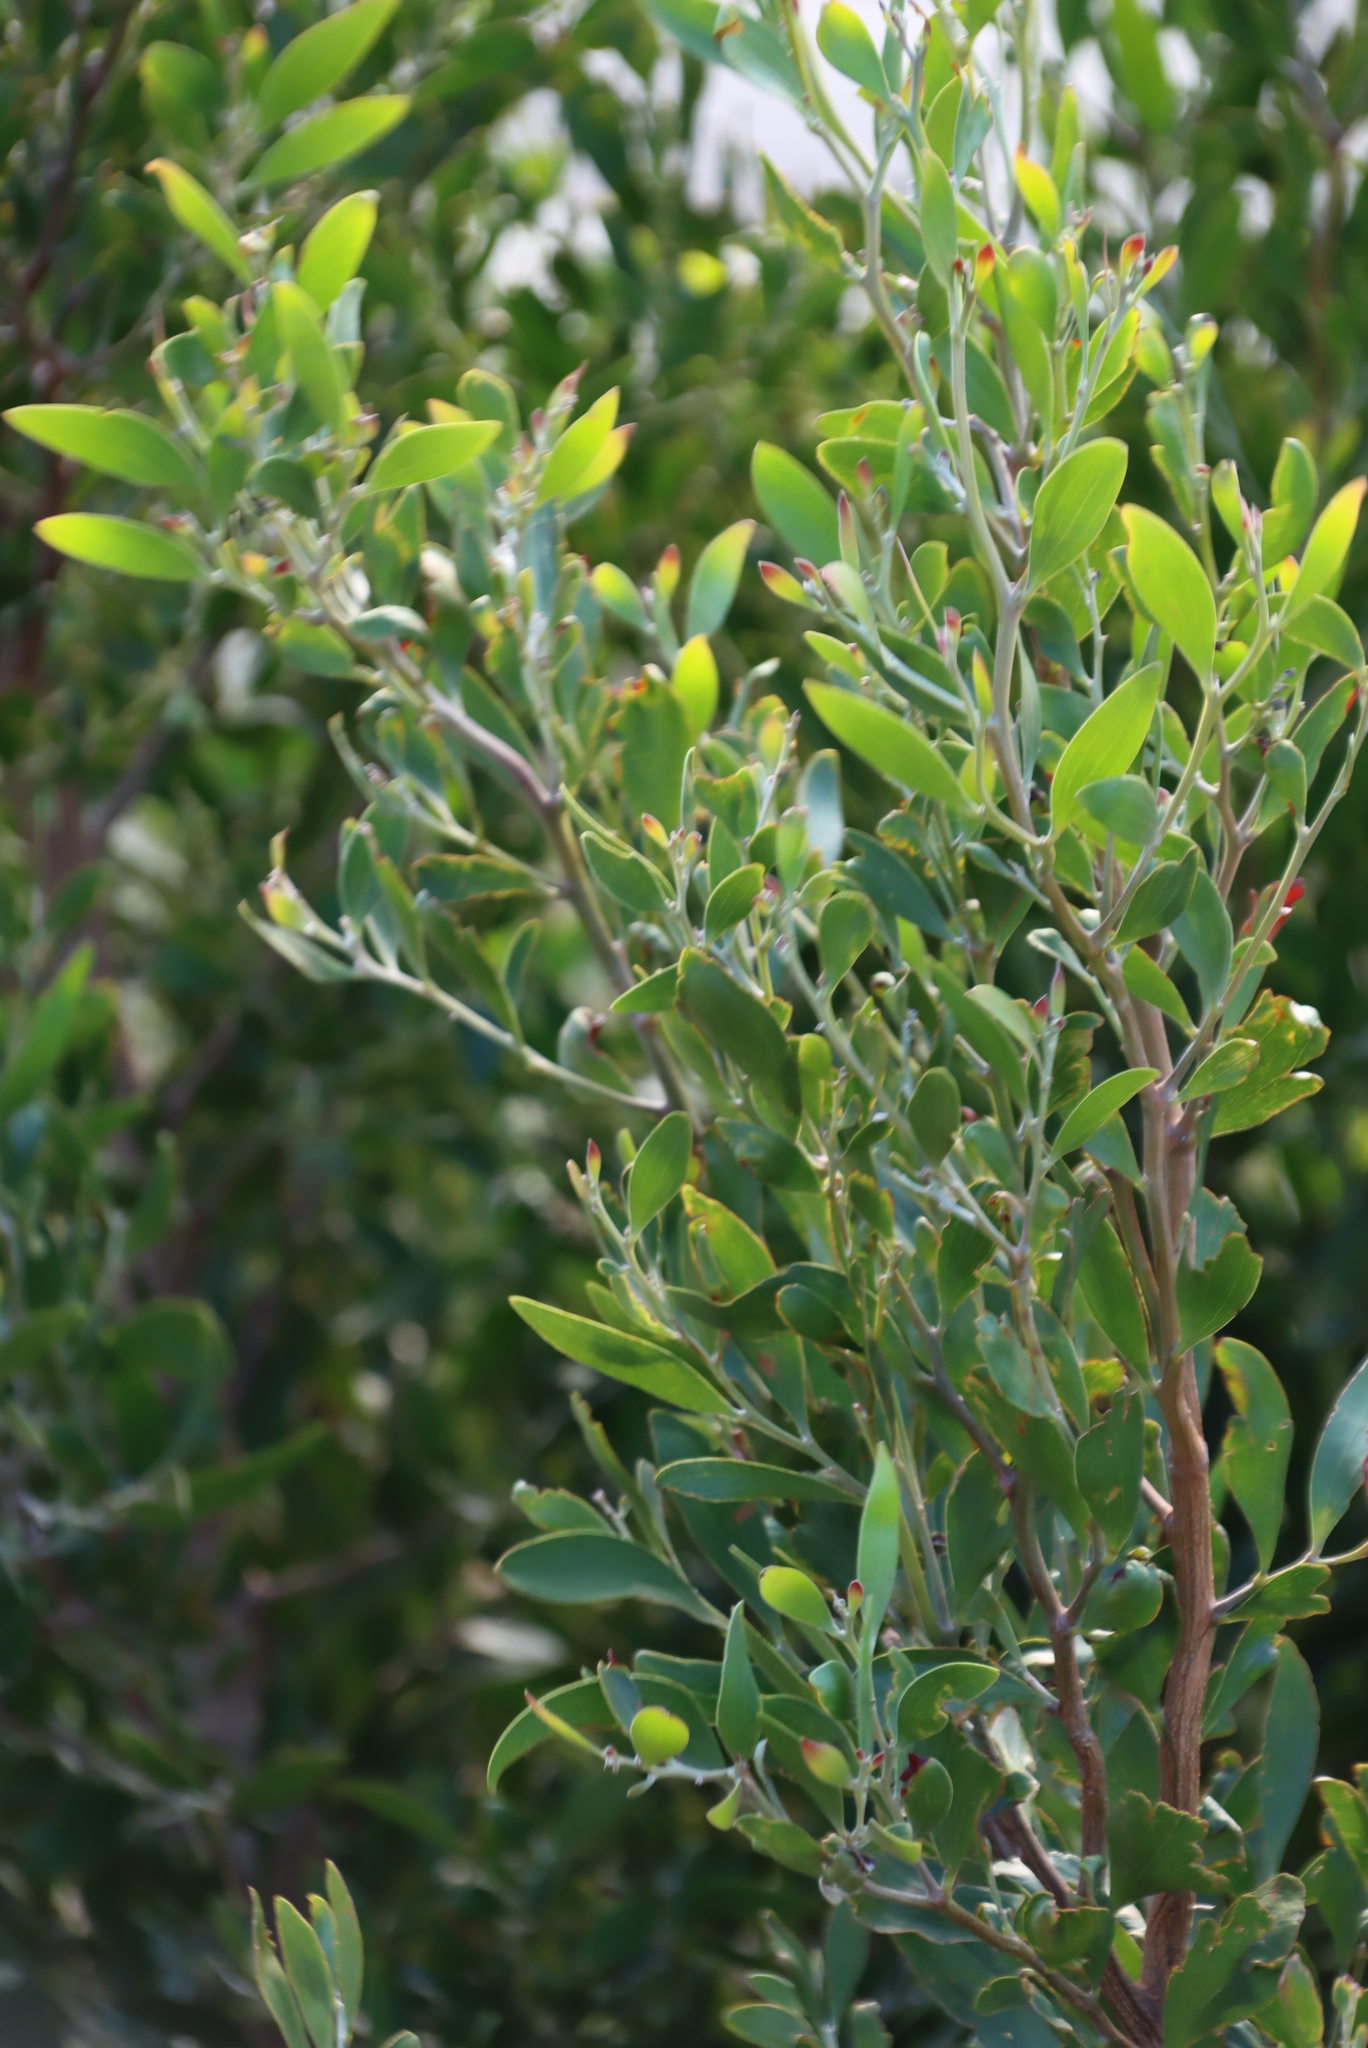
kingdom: Plantae
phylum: Tracheophyta
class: Magnoliopsida
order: Fabales
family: Fabaceae
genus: Acacia
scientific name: Acacia melanoxylon
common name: Blackwood
